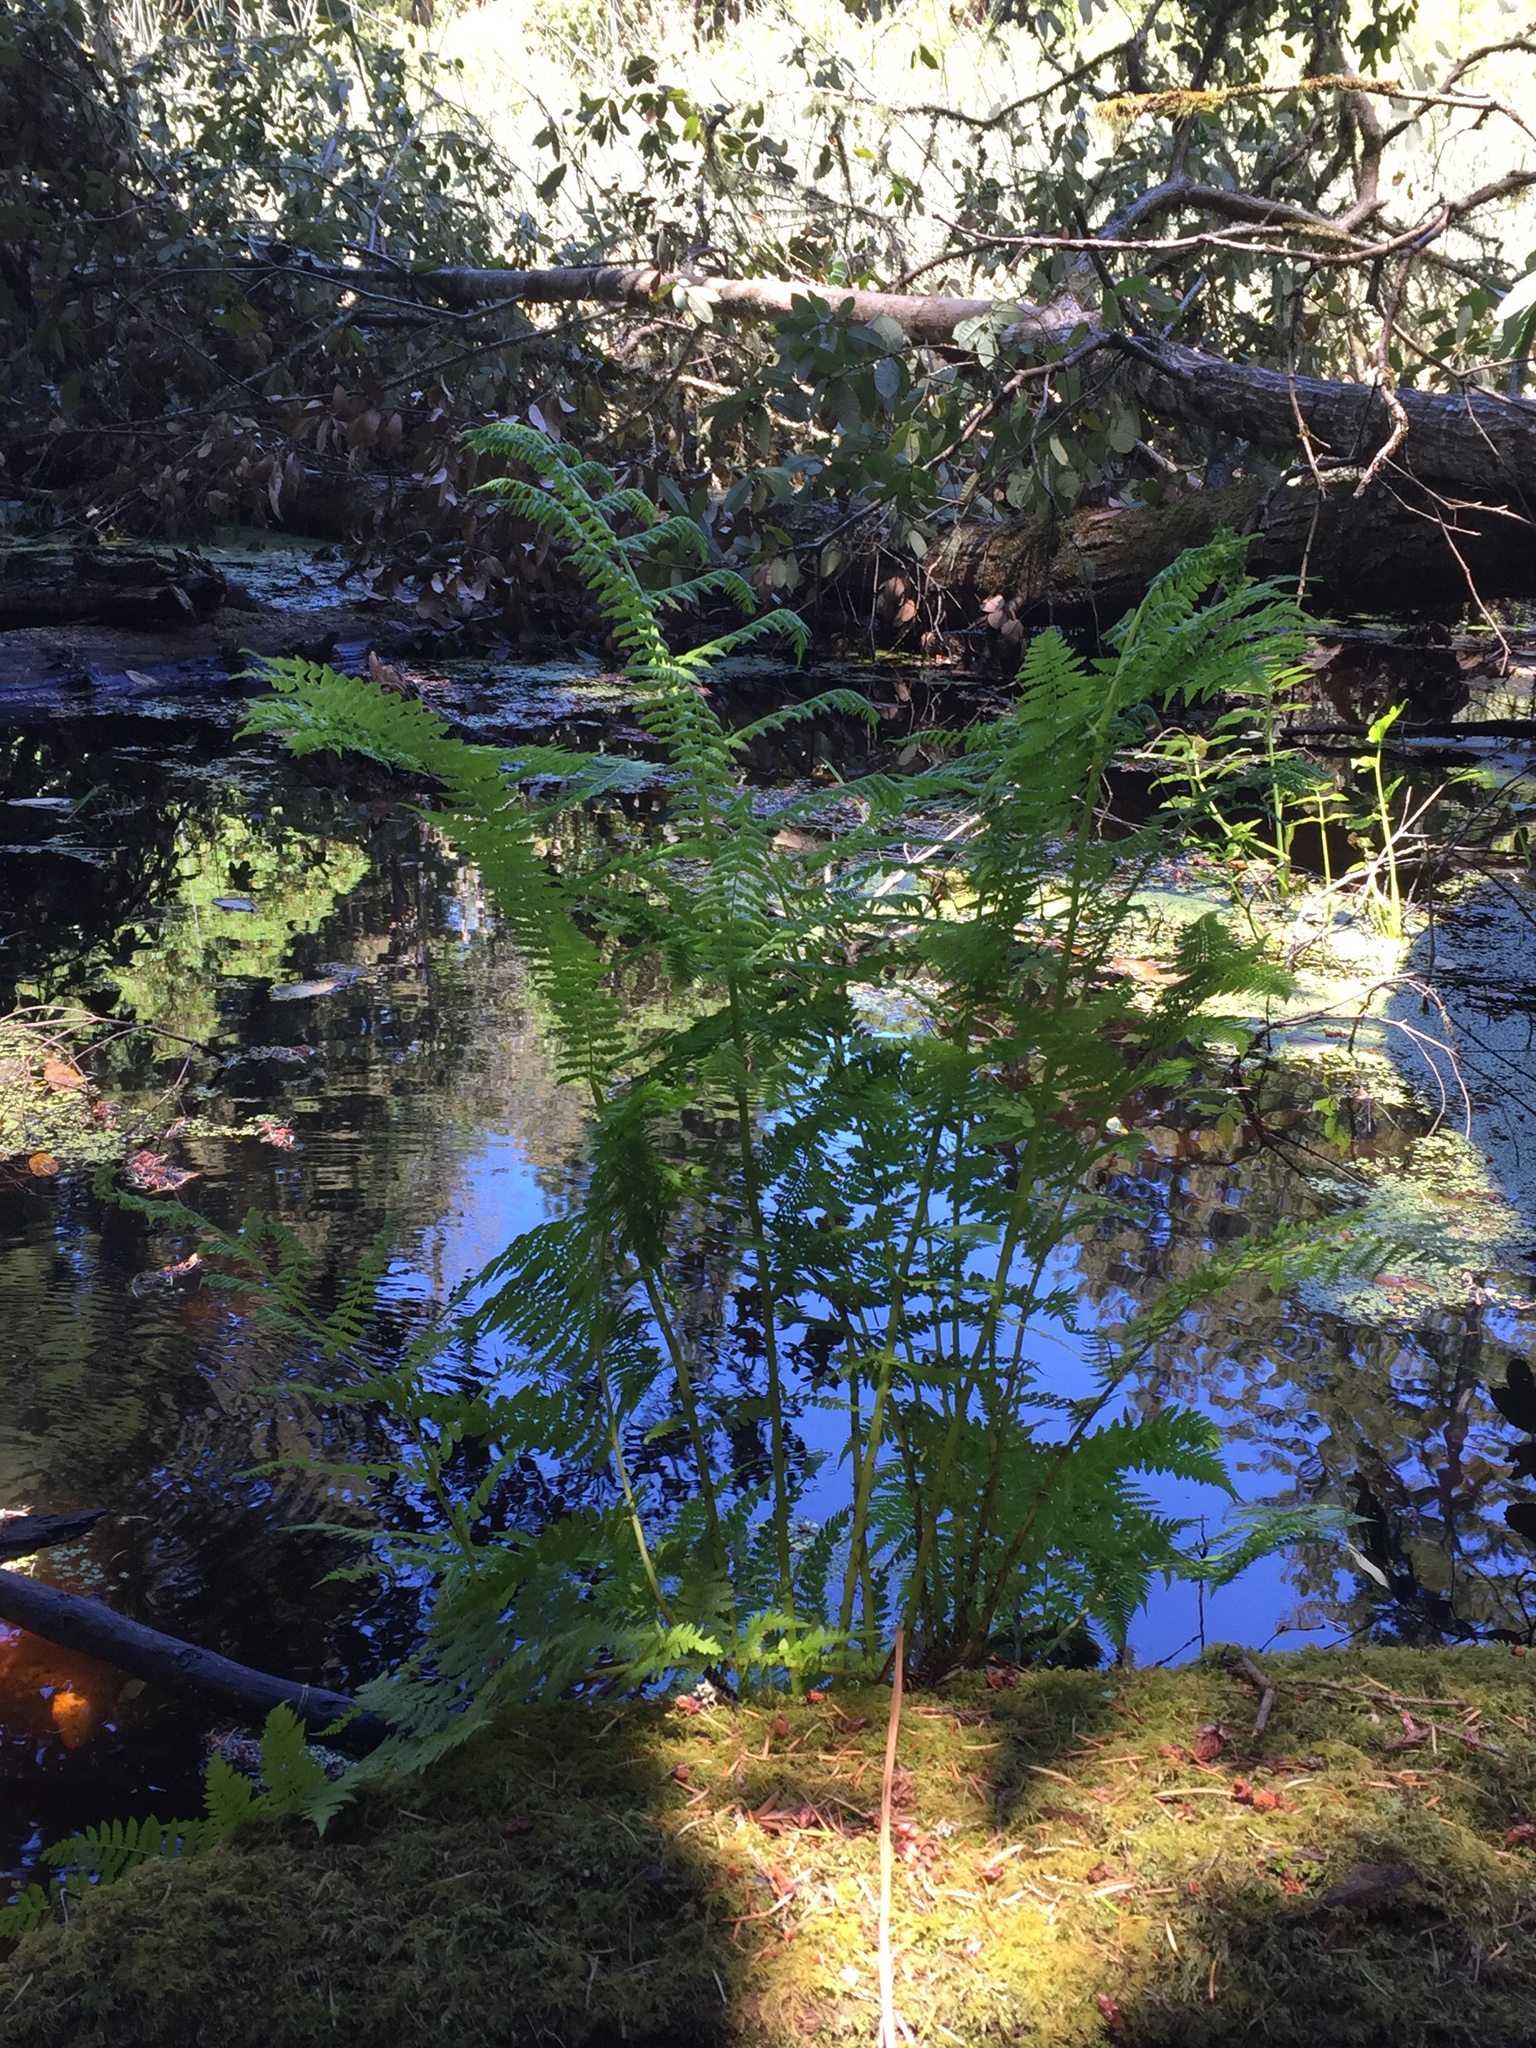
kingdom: Plantae
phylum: Tracheophyta
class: Polypodiopsida
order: Polypodiales
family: Athyriaceae
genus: Athyrium
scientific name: Athyrium cyclosorum
